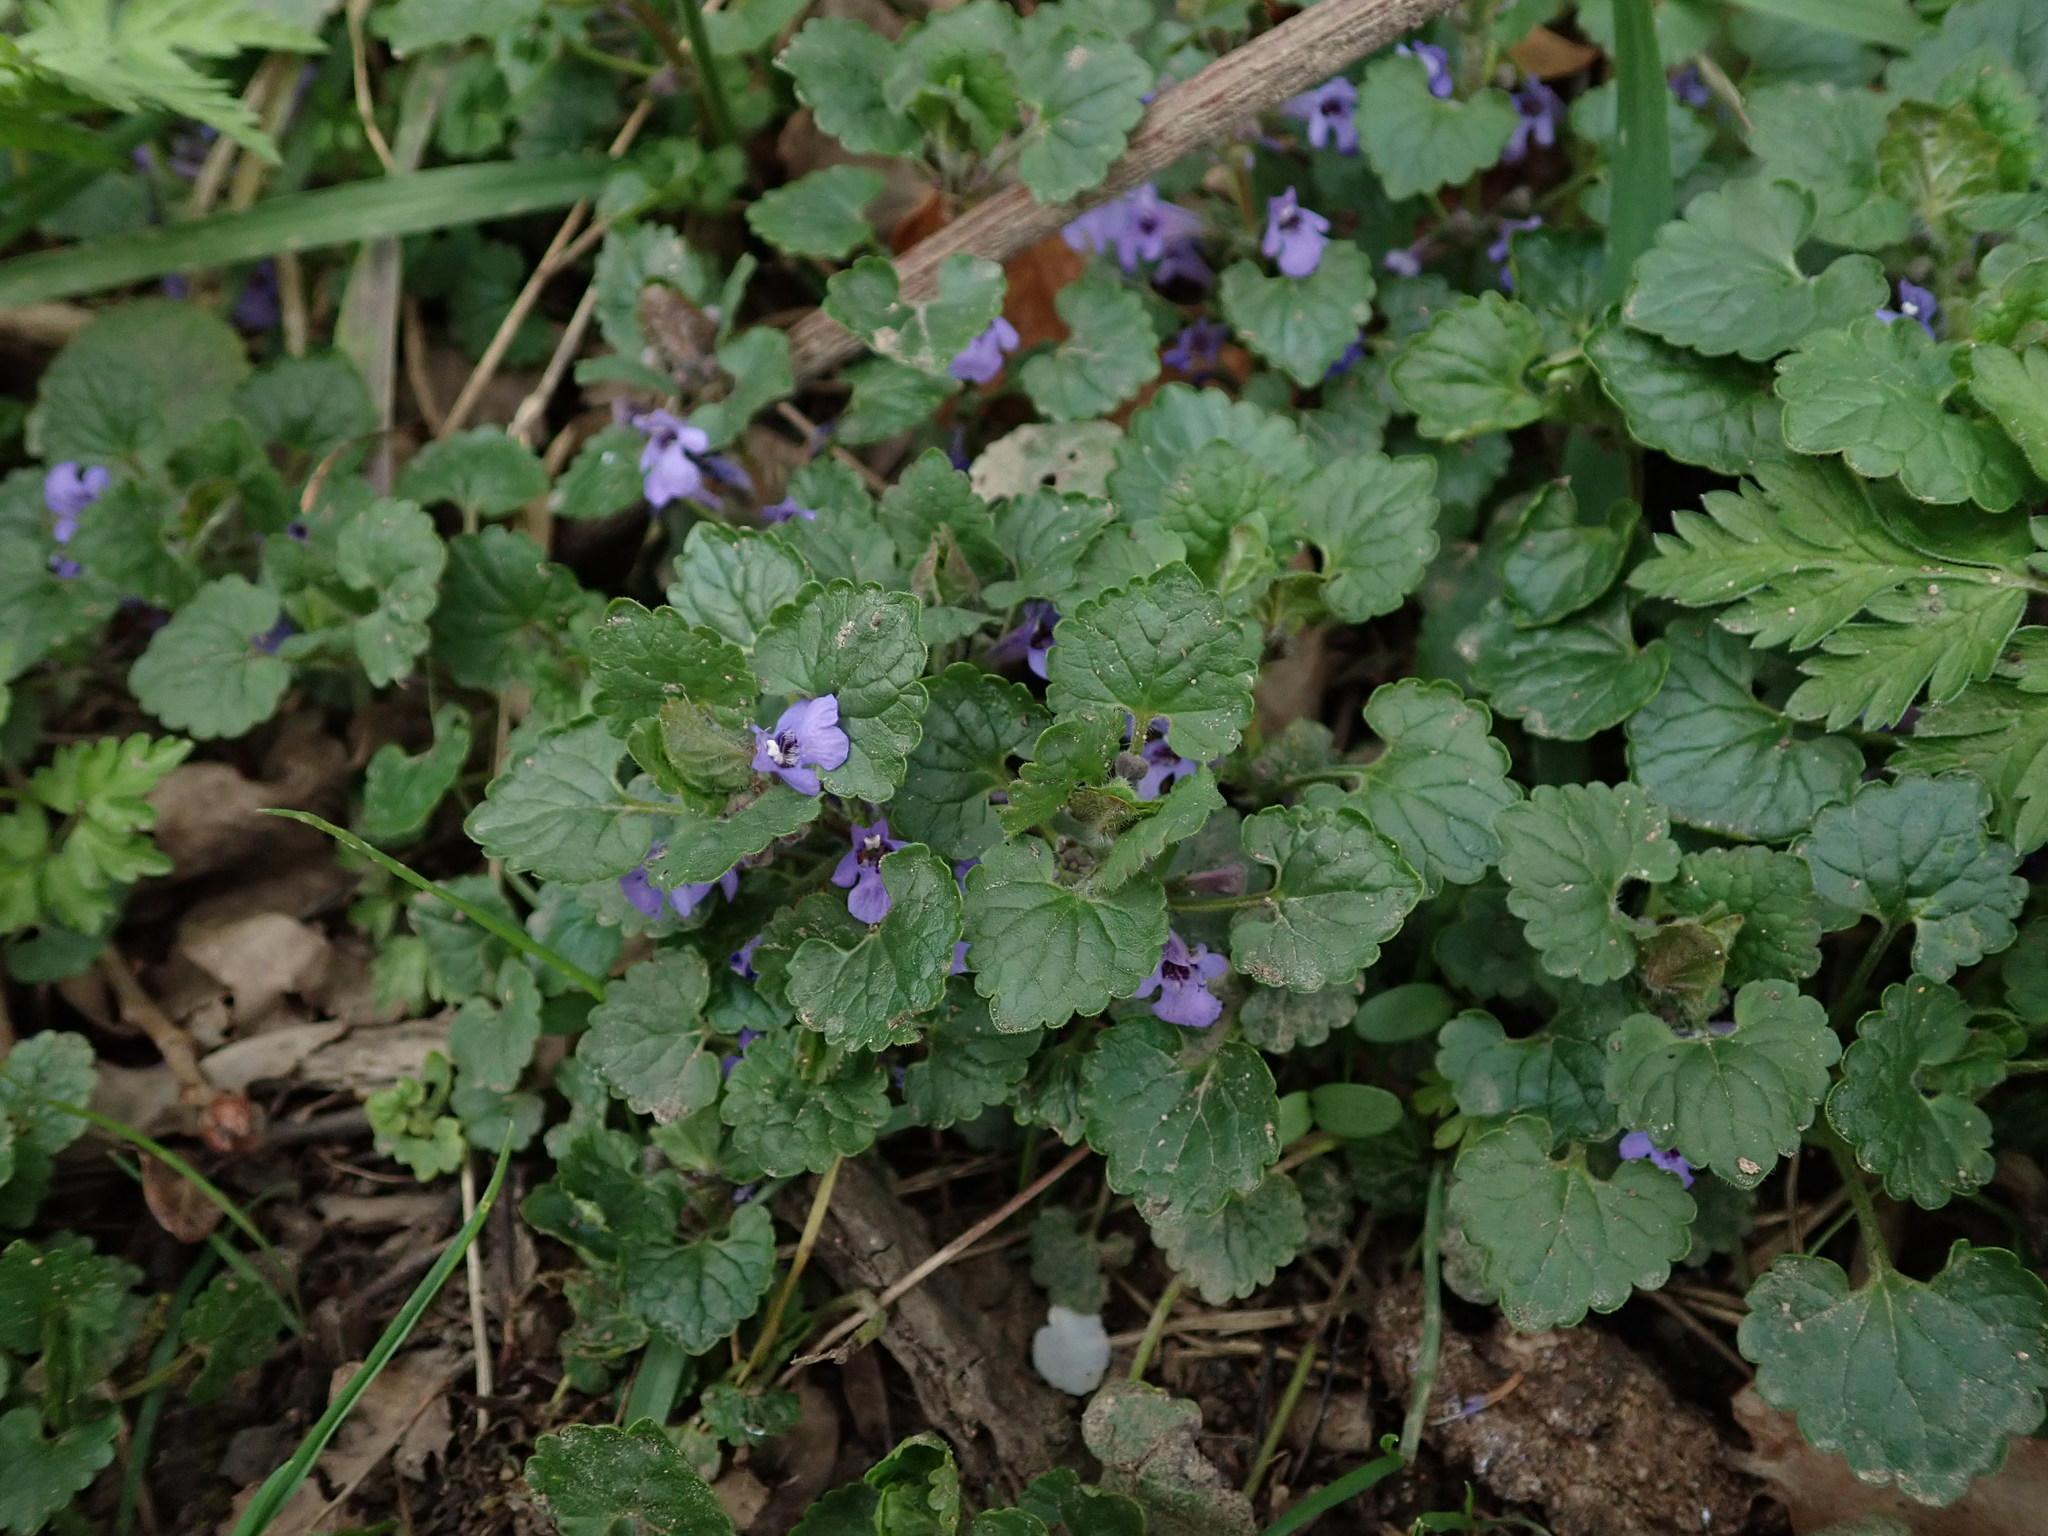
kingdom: Plantae
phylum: Tracheophyta
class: Magnoliopsida
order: Lamiales
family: Lamiaceae
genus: Glechoma
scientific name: Glechoma hederacea
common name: Ground ivy
